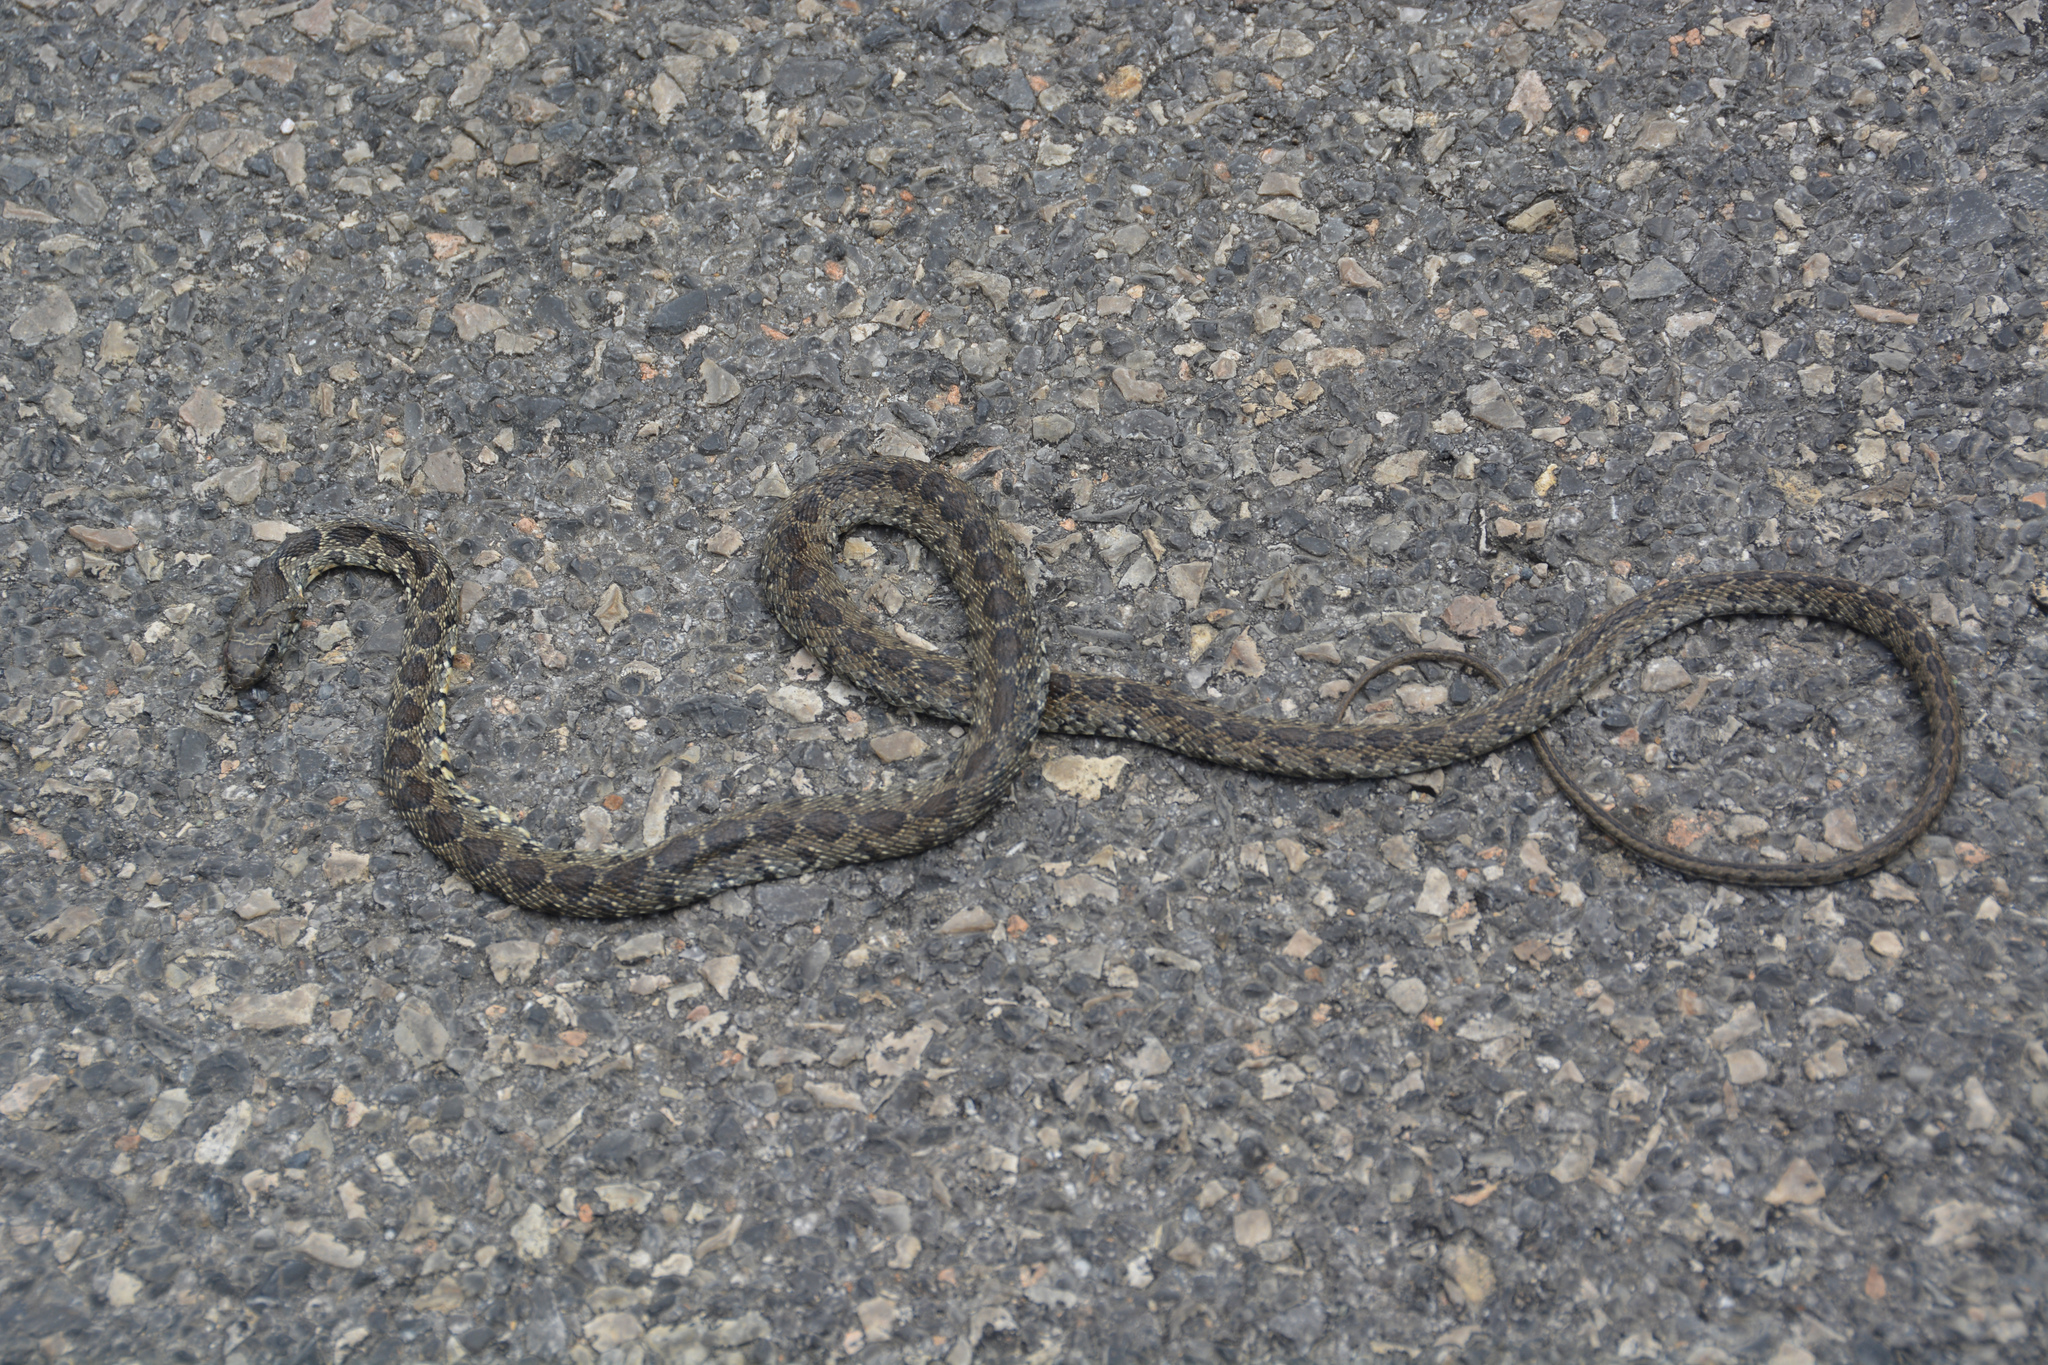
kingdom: Animalia
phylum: Chordata
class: Squamata
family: Colubridae
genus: Hemorrhois
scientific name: Hemorrhois hippocrepis
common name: Horseshoe whip snake
